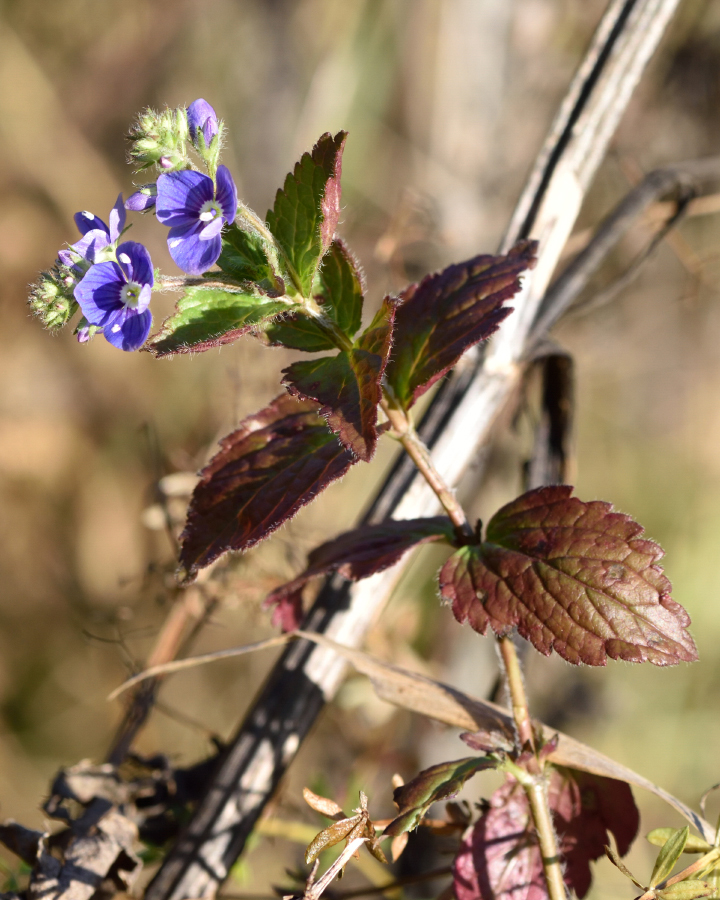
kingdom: Plantae
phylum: Tracheophyta
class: Magnoliopsida
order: Lamiales
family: Plantaginaceae
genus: Veronica
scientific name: Veronica chamaedrys
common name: Germander speedwell
